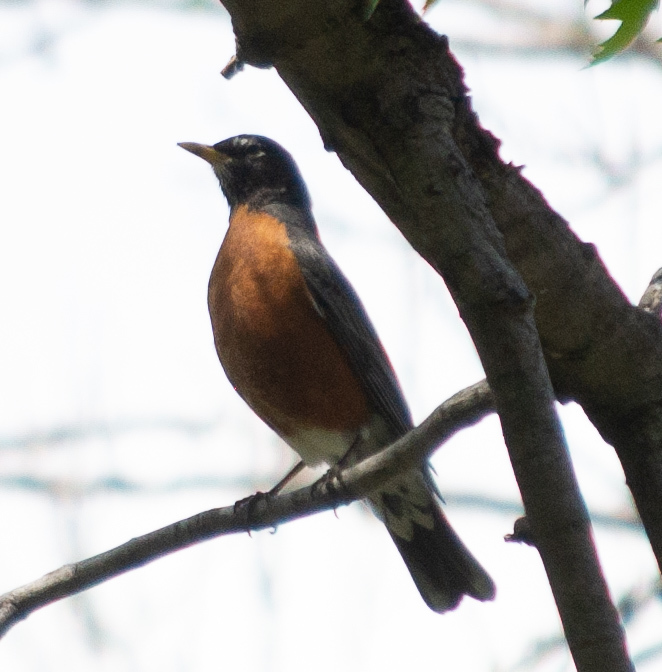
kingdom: Animalia
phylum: Chordata
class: Aves
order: Passeriformes
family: Turdidae
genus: Turdus
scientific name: Turdus migratorius
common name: American robin
